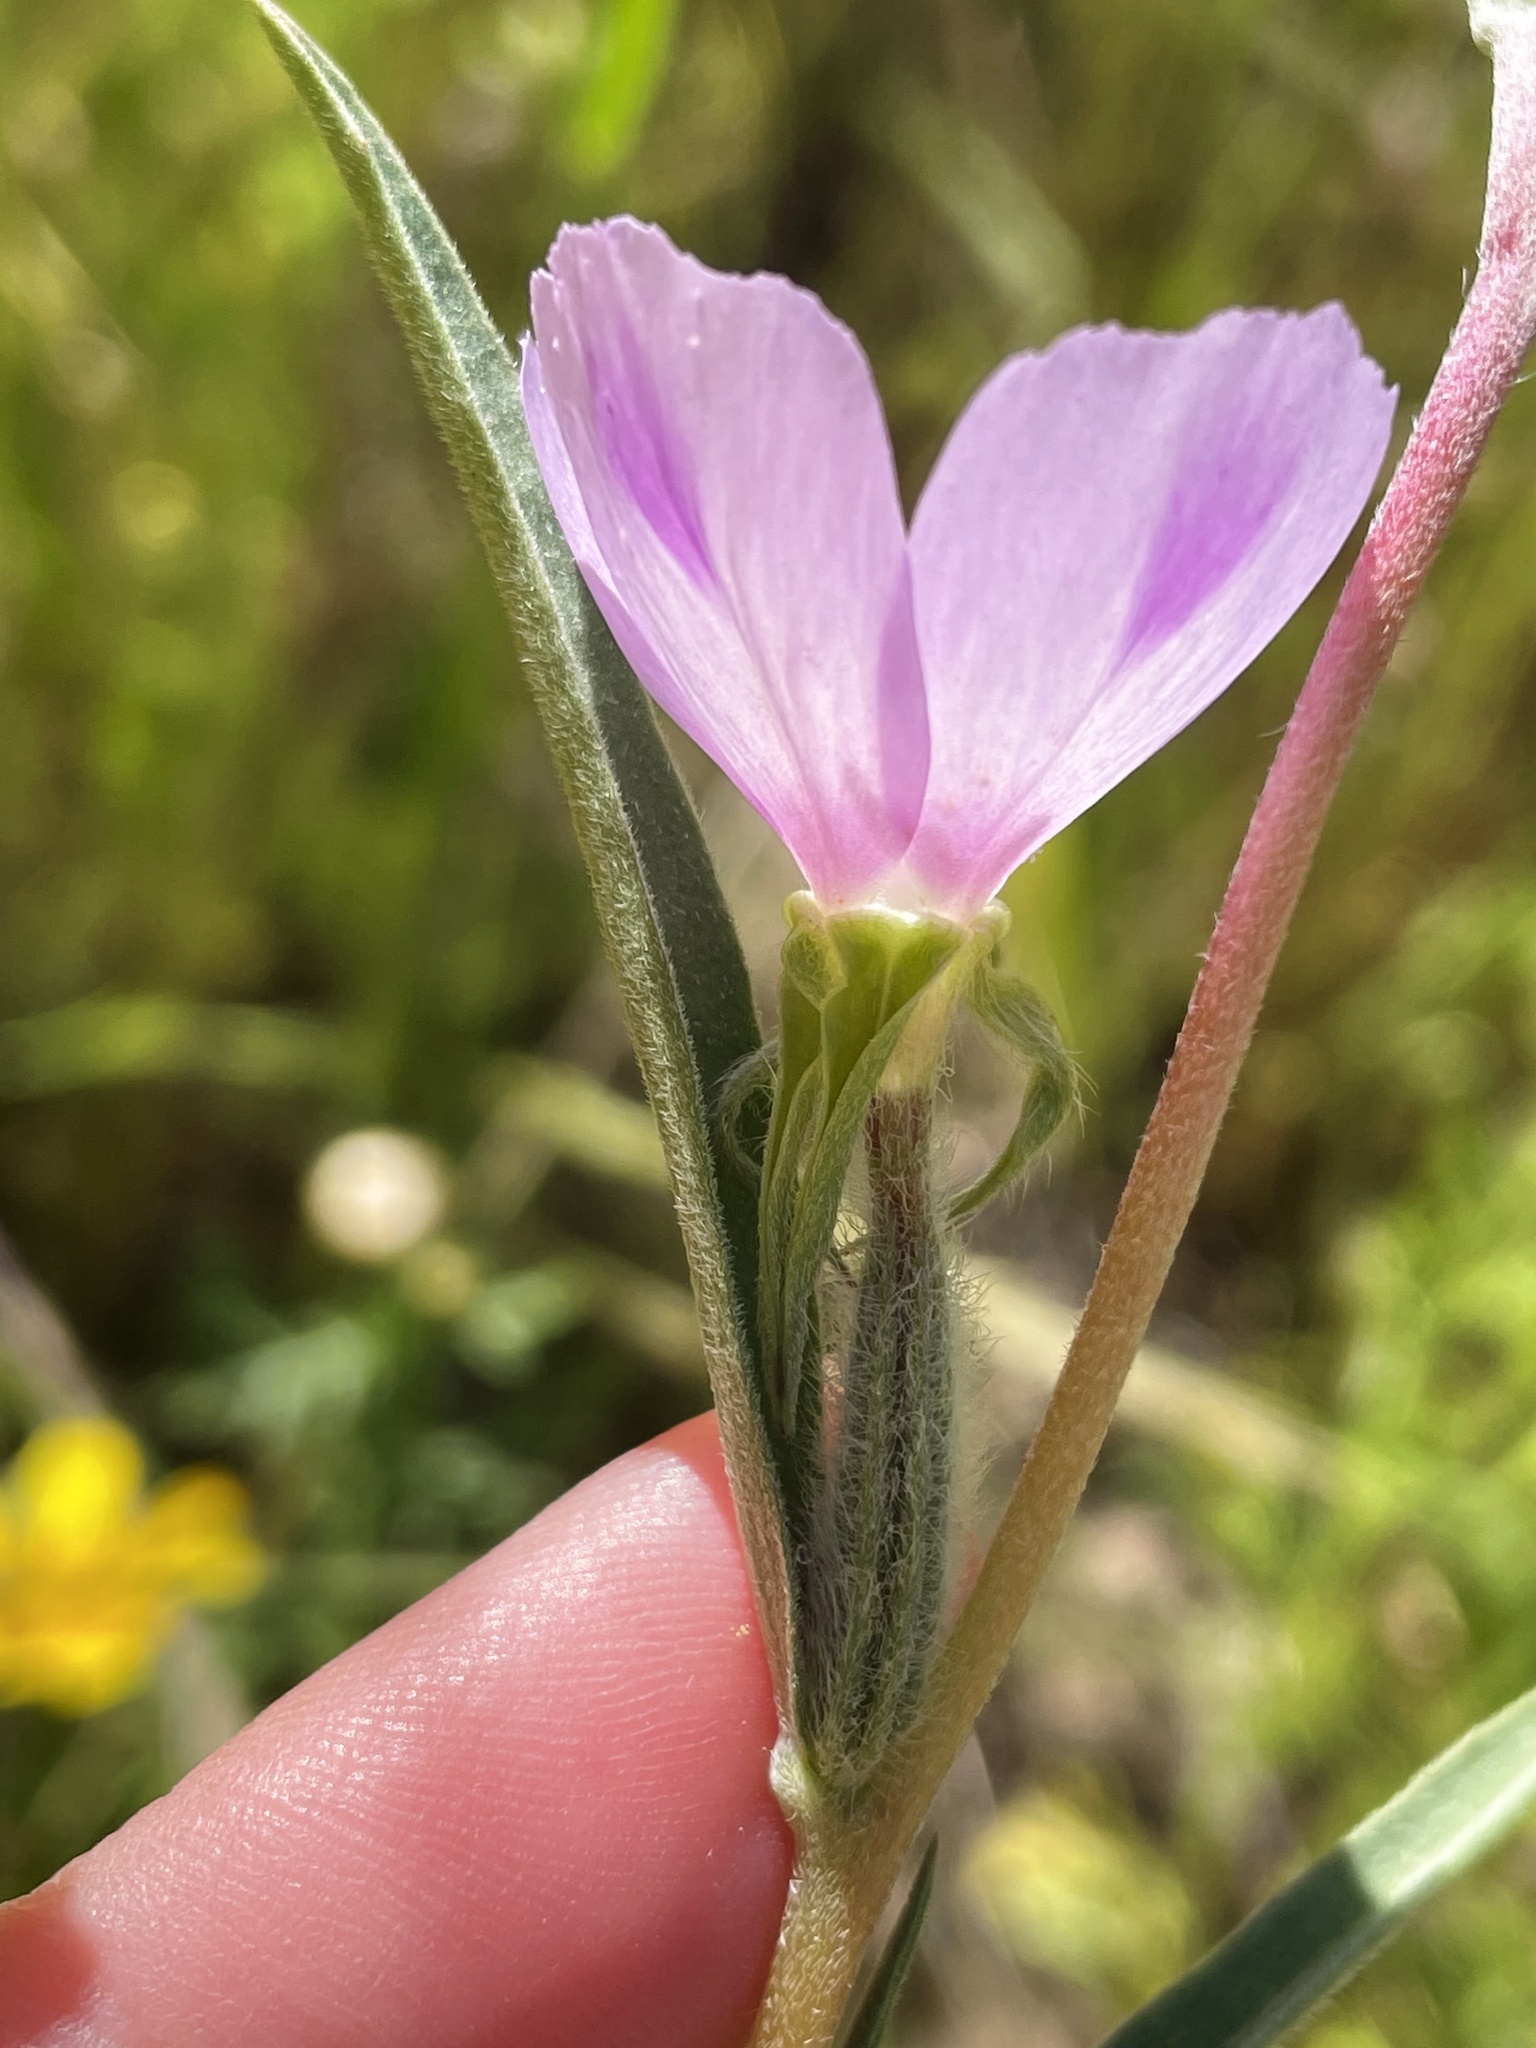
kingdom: Plantae
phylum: Tracheophyta
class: Magnoliopsida
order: Myrtales
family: Onagraceae
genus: Clarkia
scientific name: Clarkia purpurea
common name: Purple clarkia
